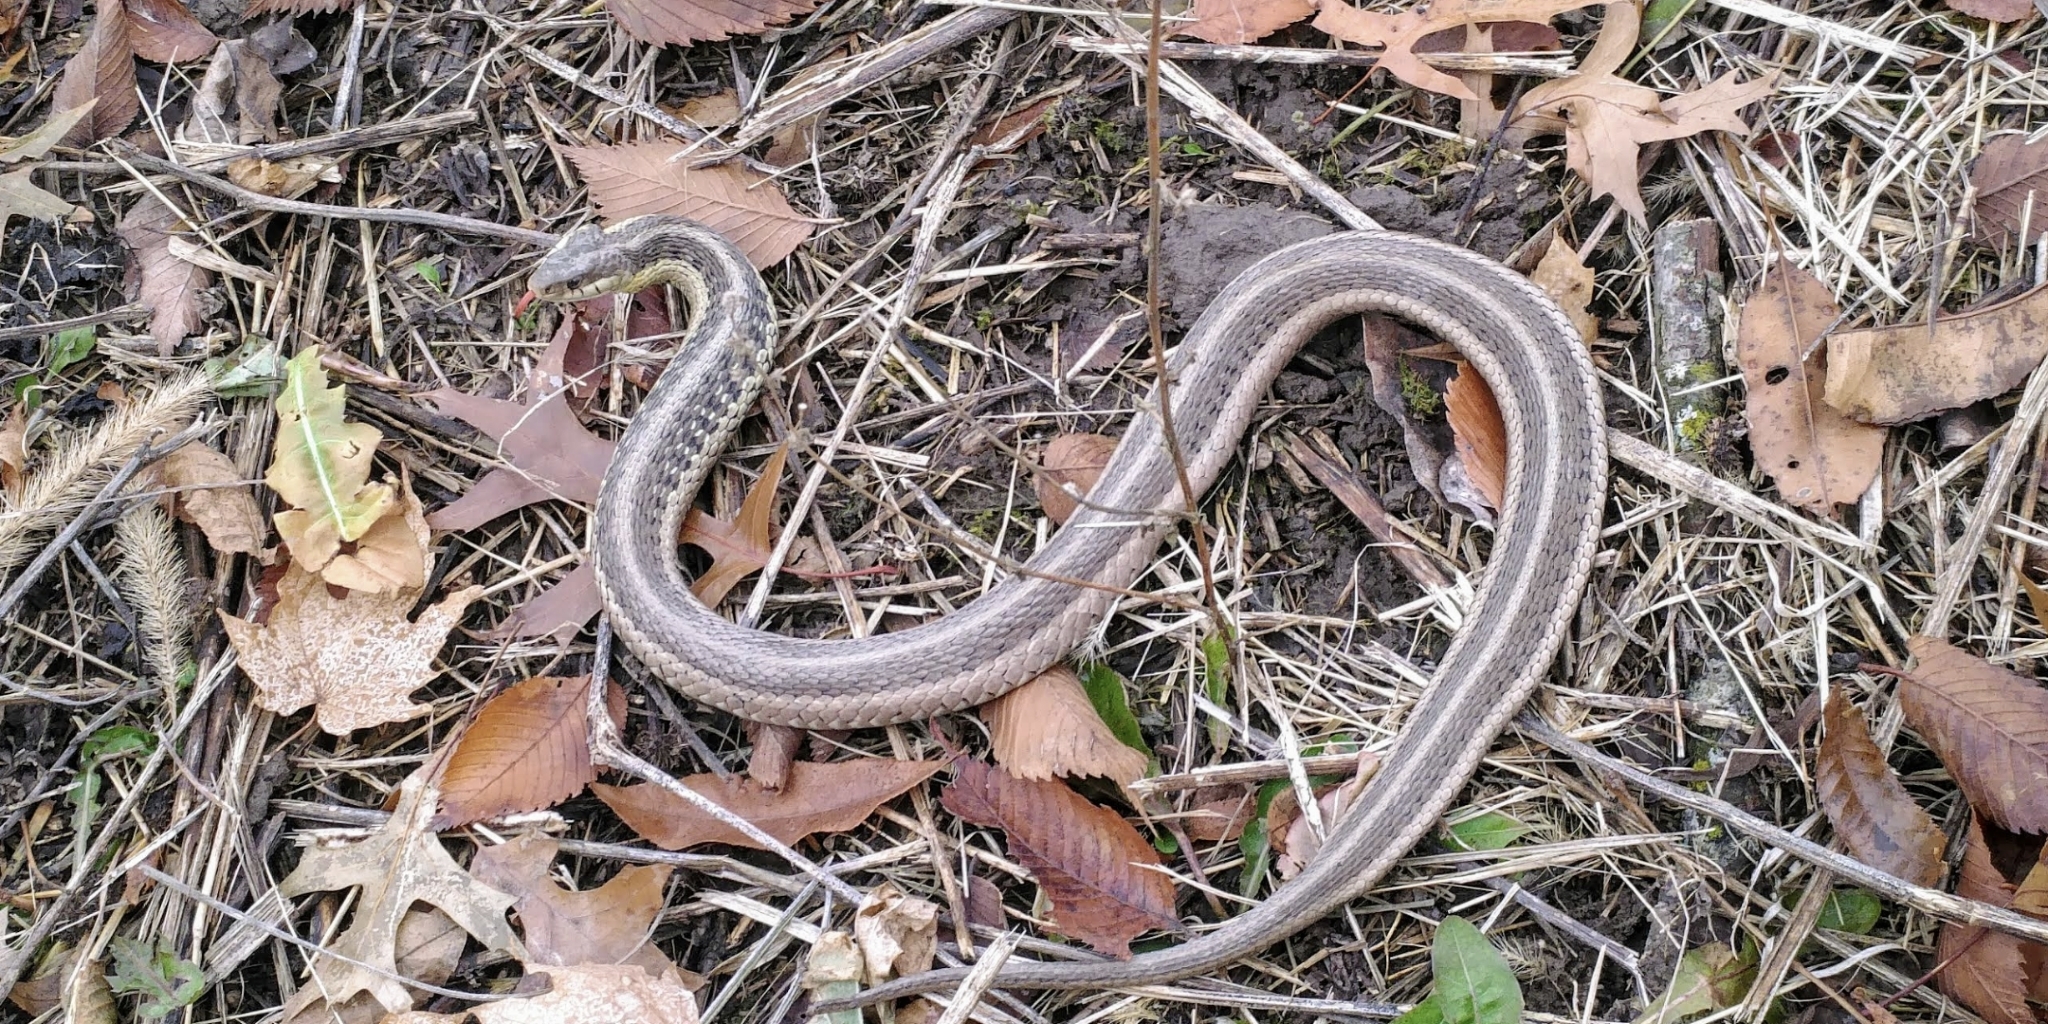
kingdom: Animalia
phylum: Chordata
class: Squamata
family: Colubridae
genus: Thamnophis
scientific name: Thamnophis sirtalis
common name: Common garter snake
